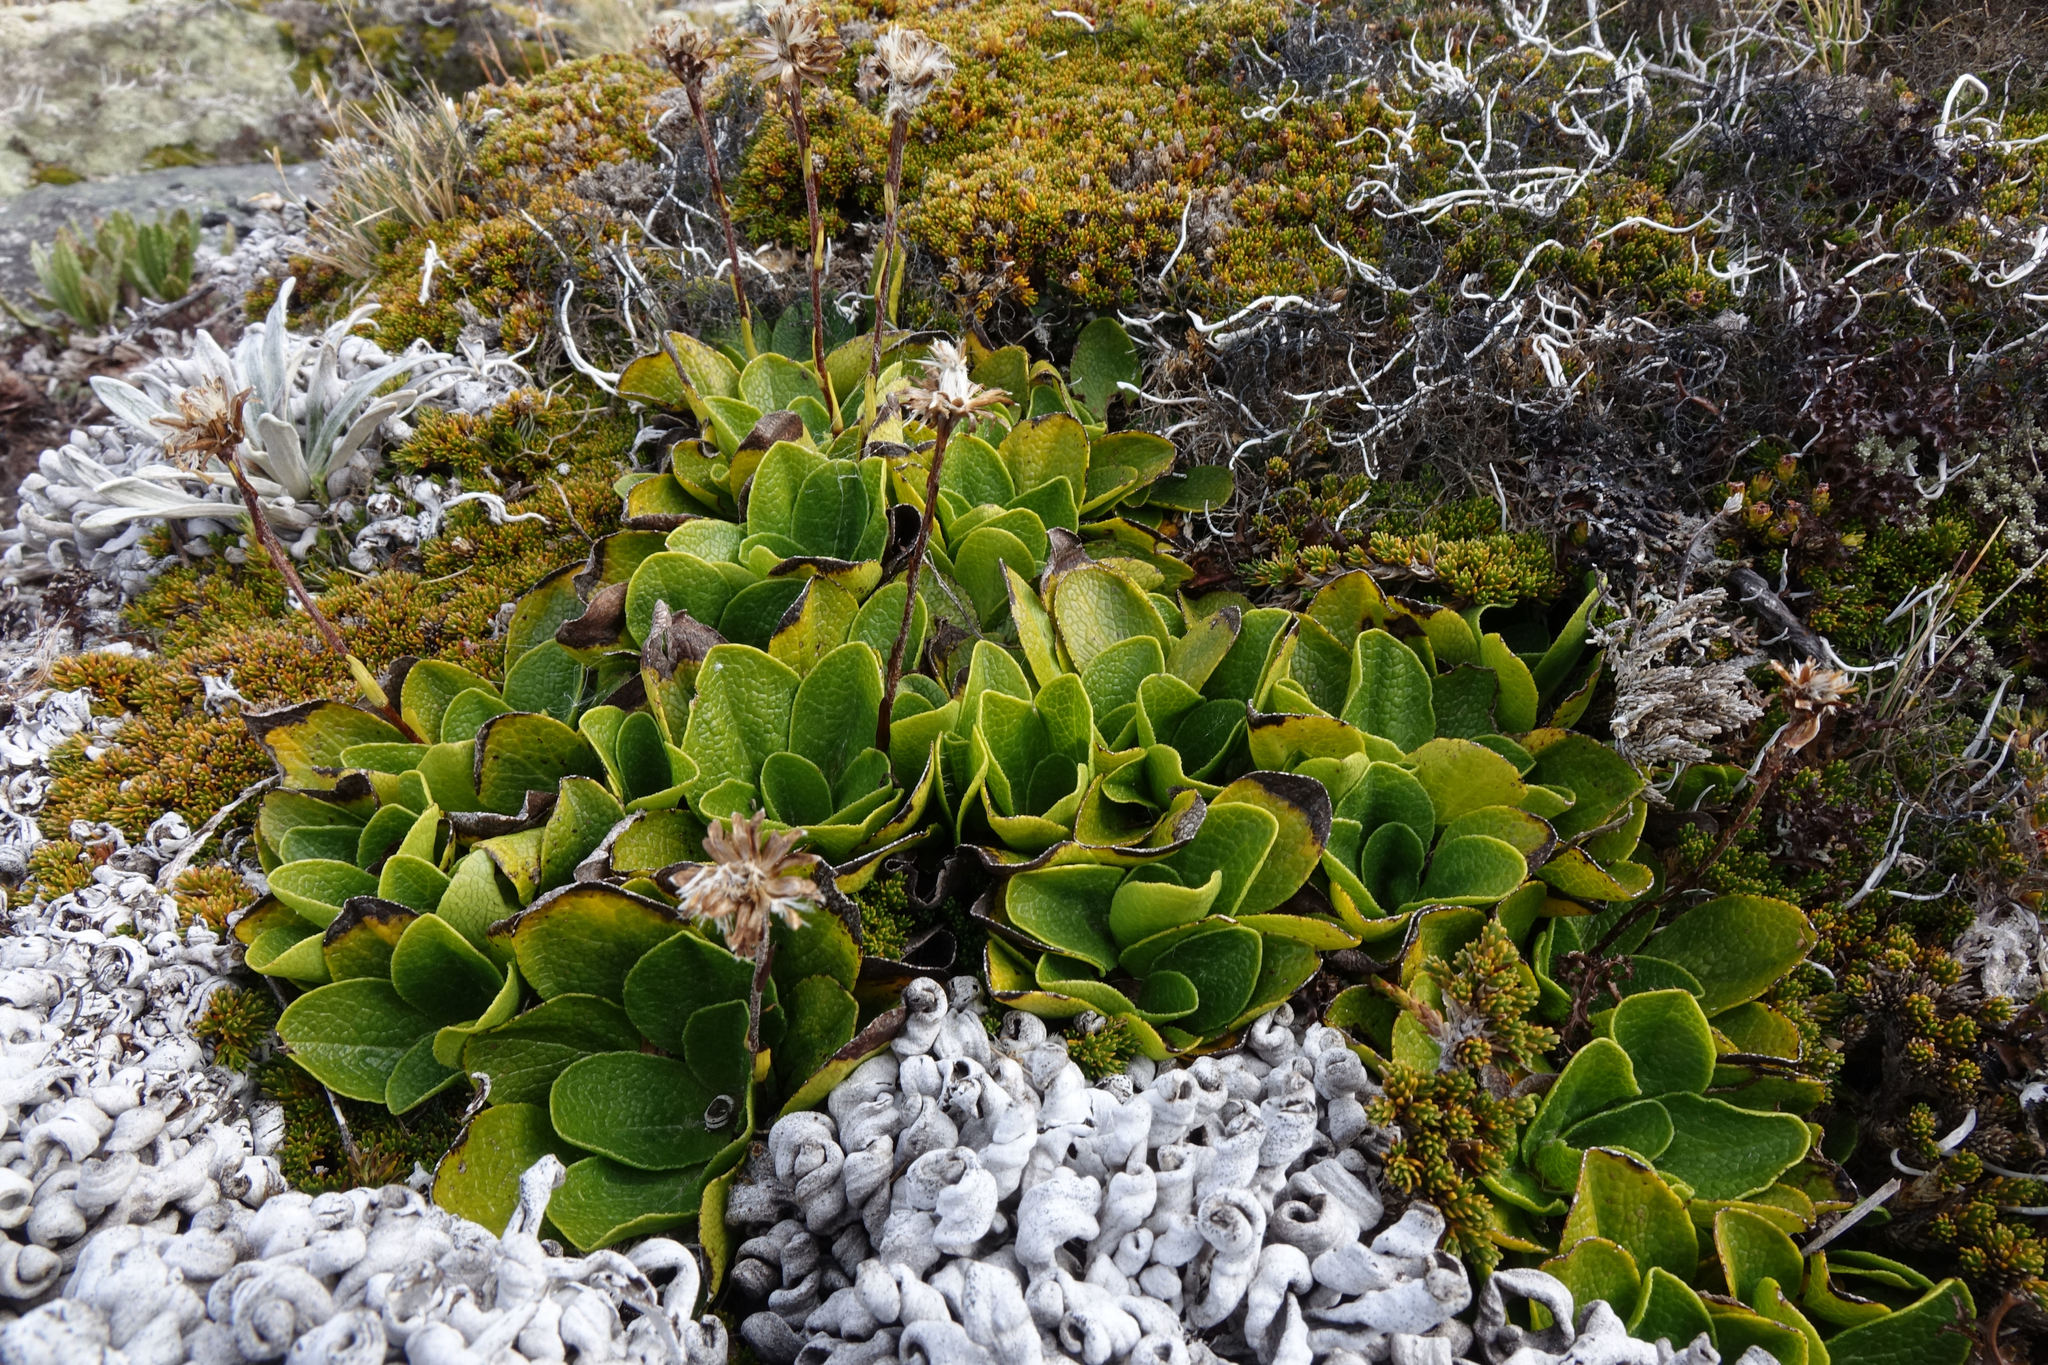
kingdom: Plantae
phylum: Tracheophyta
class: Magnoliopsida
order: Asterales
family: Asteraceae
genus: Brachyglottis
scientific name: Brachyglottis bellidioides
